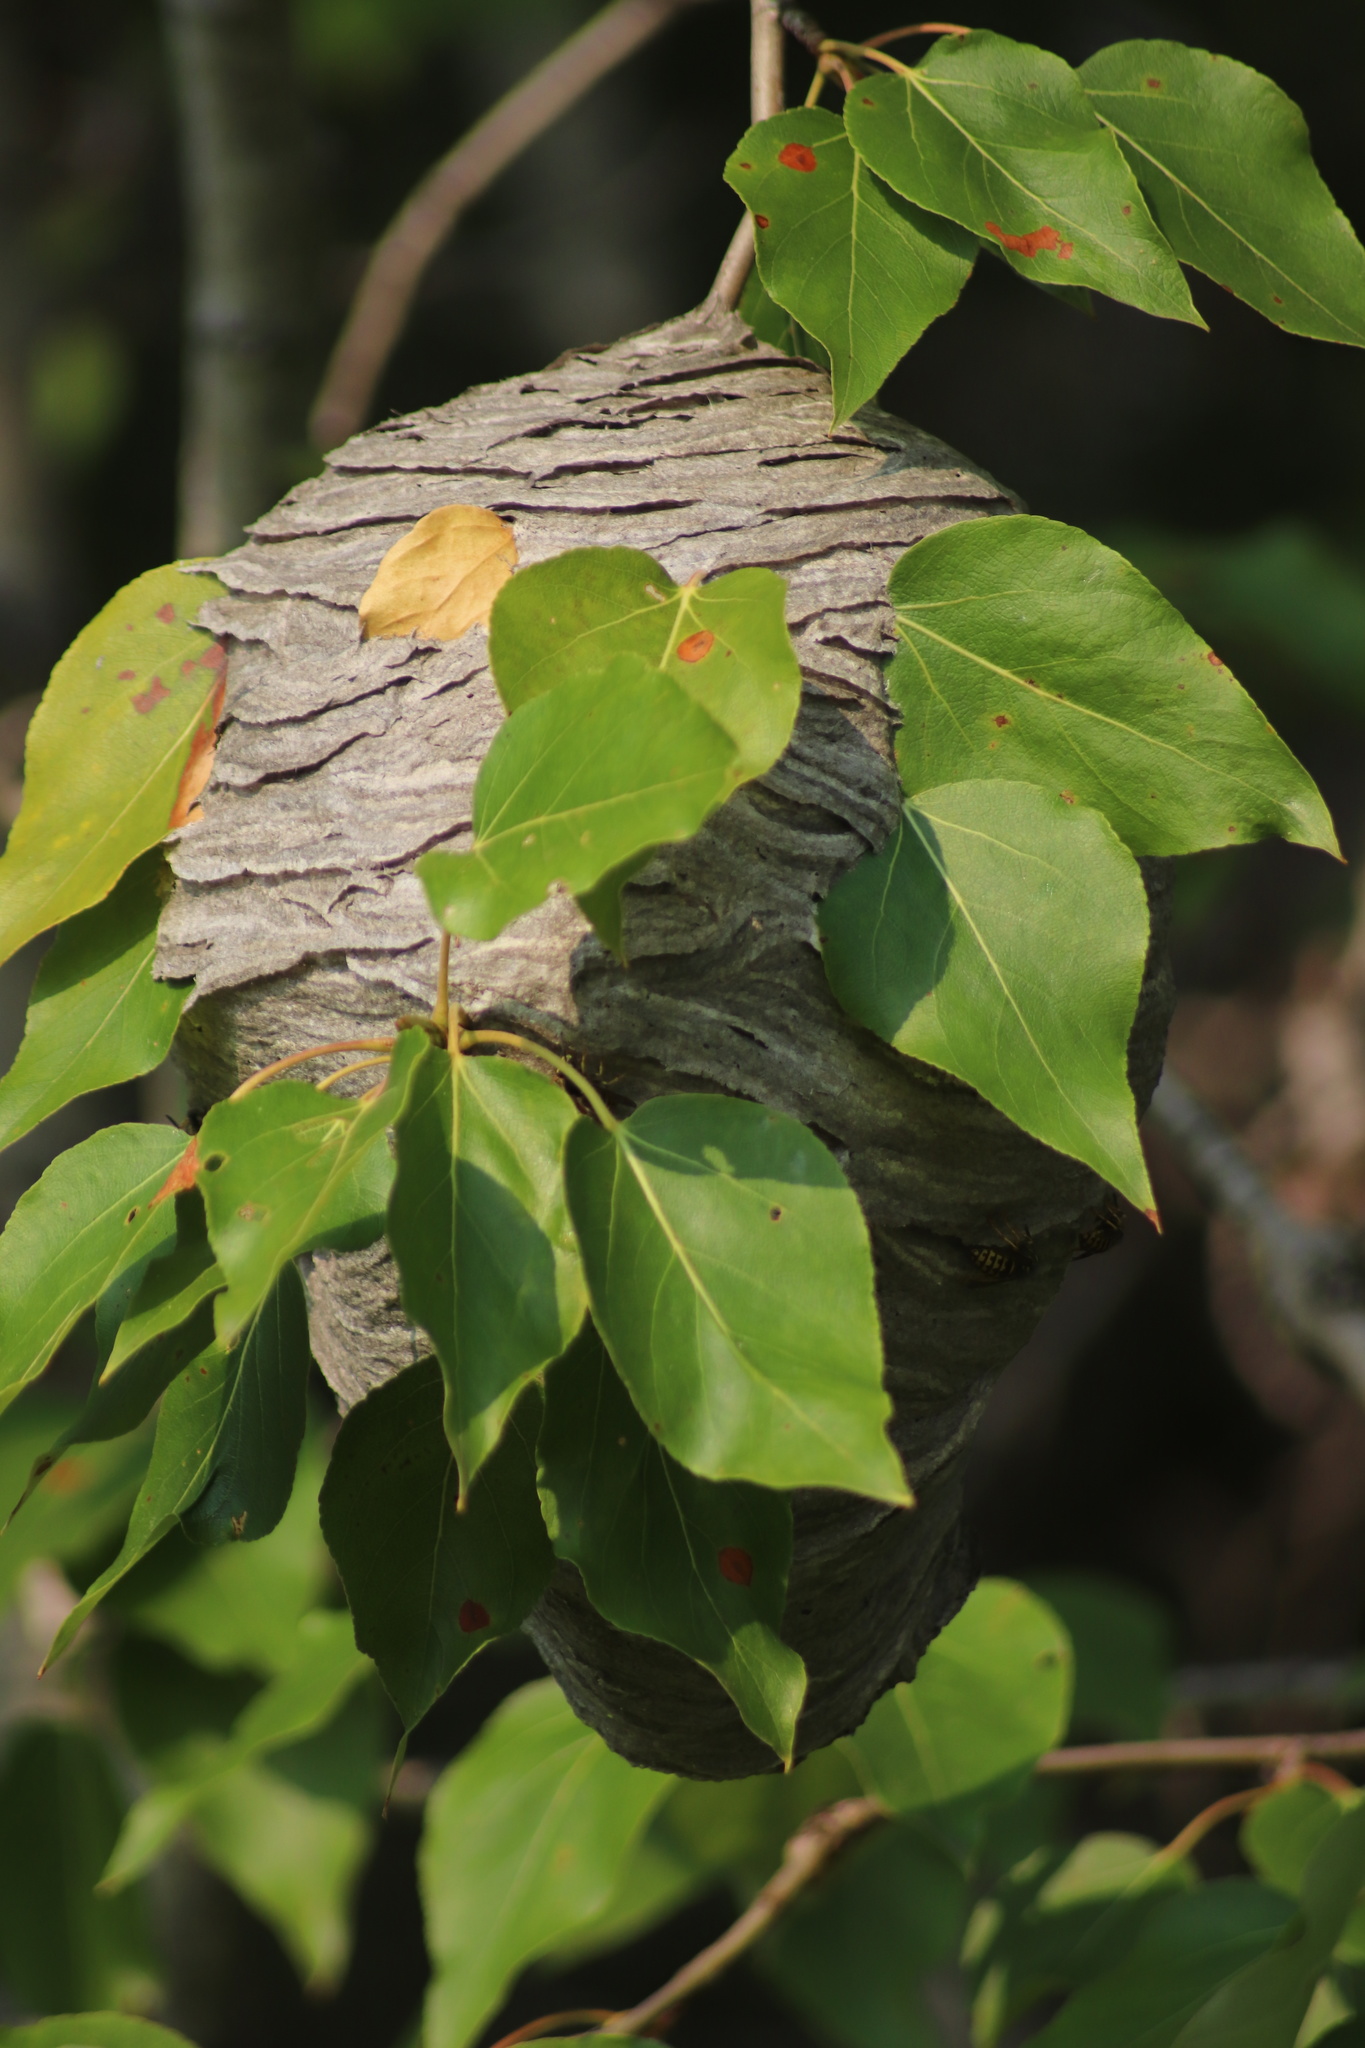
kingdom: Animalia
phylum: Arthropoda
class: Insecta
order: Hymenoptera
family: Vespidae
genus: Dolichovespula
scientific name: Dolichovespula arenaria
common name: Aerial yellowjacket
